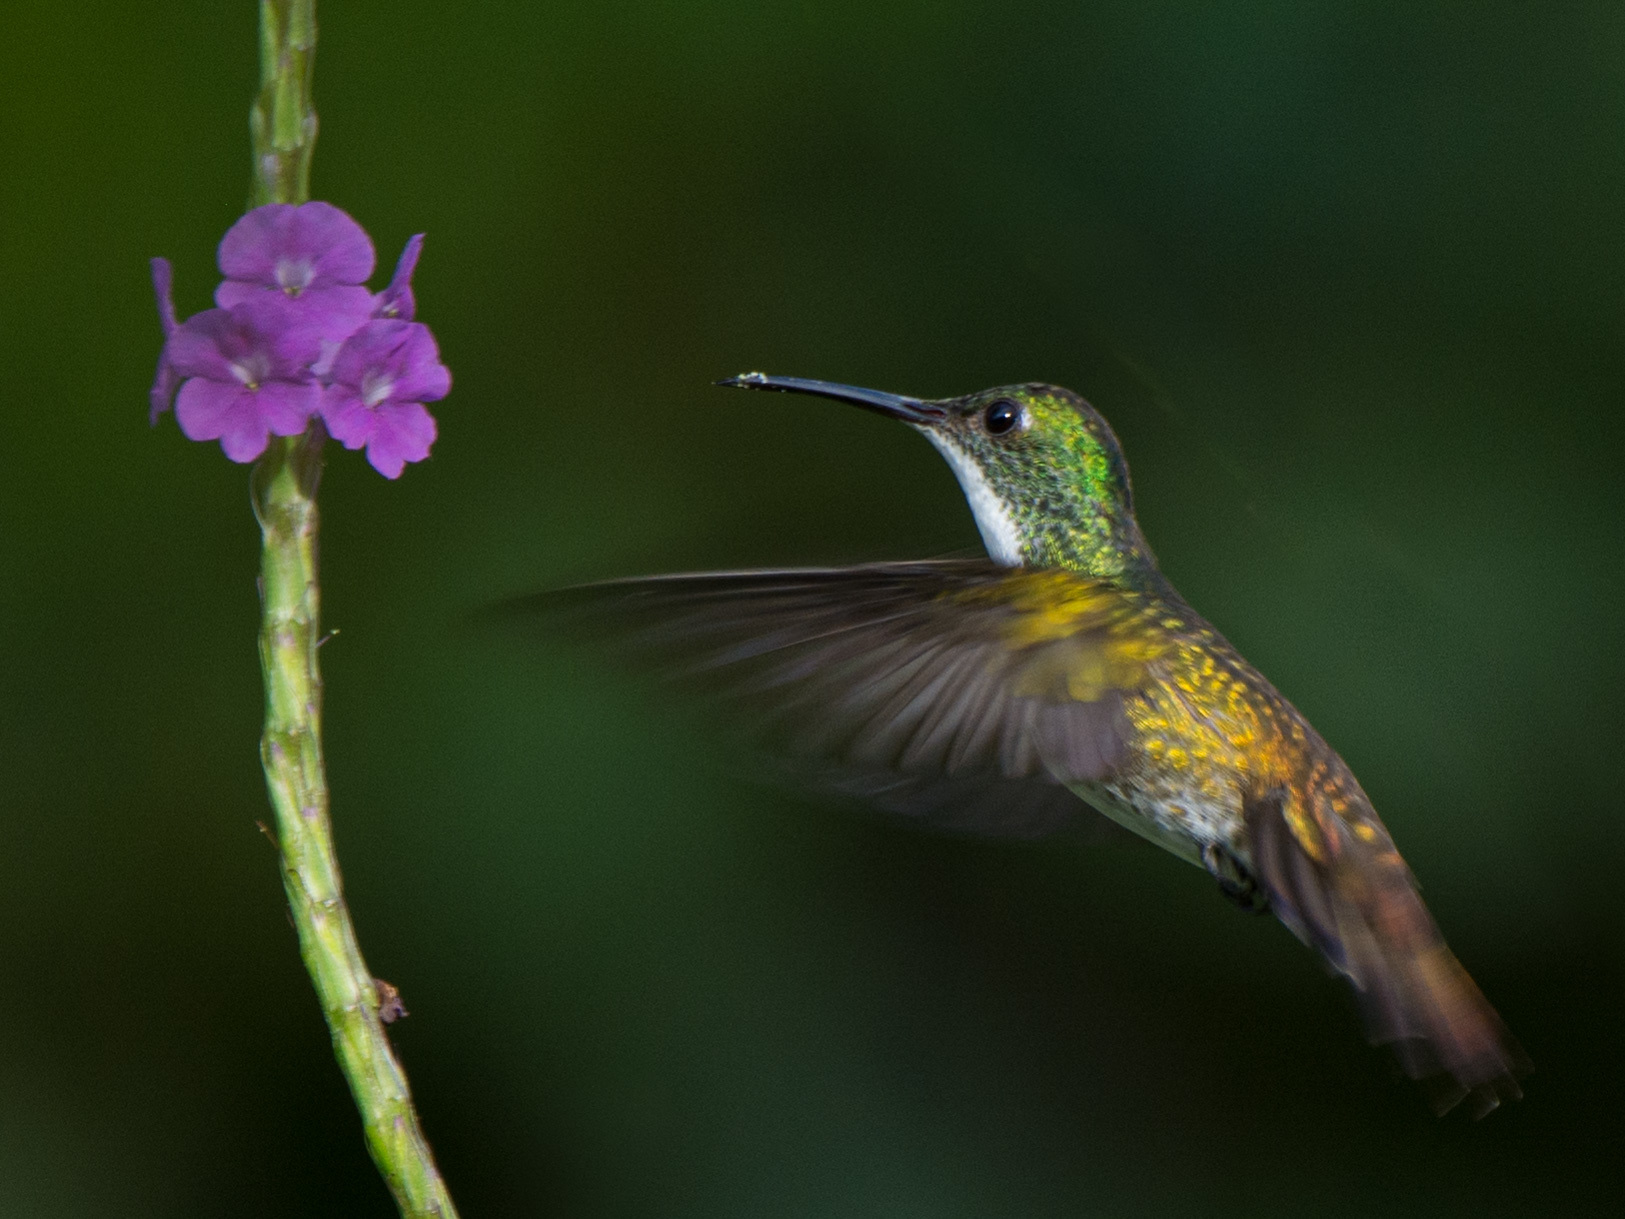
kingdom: Animalia
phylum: Chordata
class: Aves
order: Apodiformes
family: Trochilidae
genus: Saucerottia
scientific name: Saucerottia tobaci
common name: Copper-rumped hummingbird
